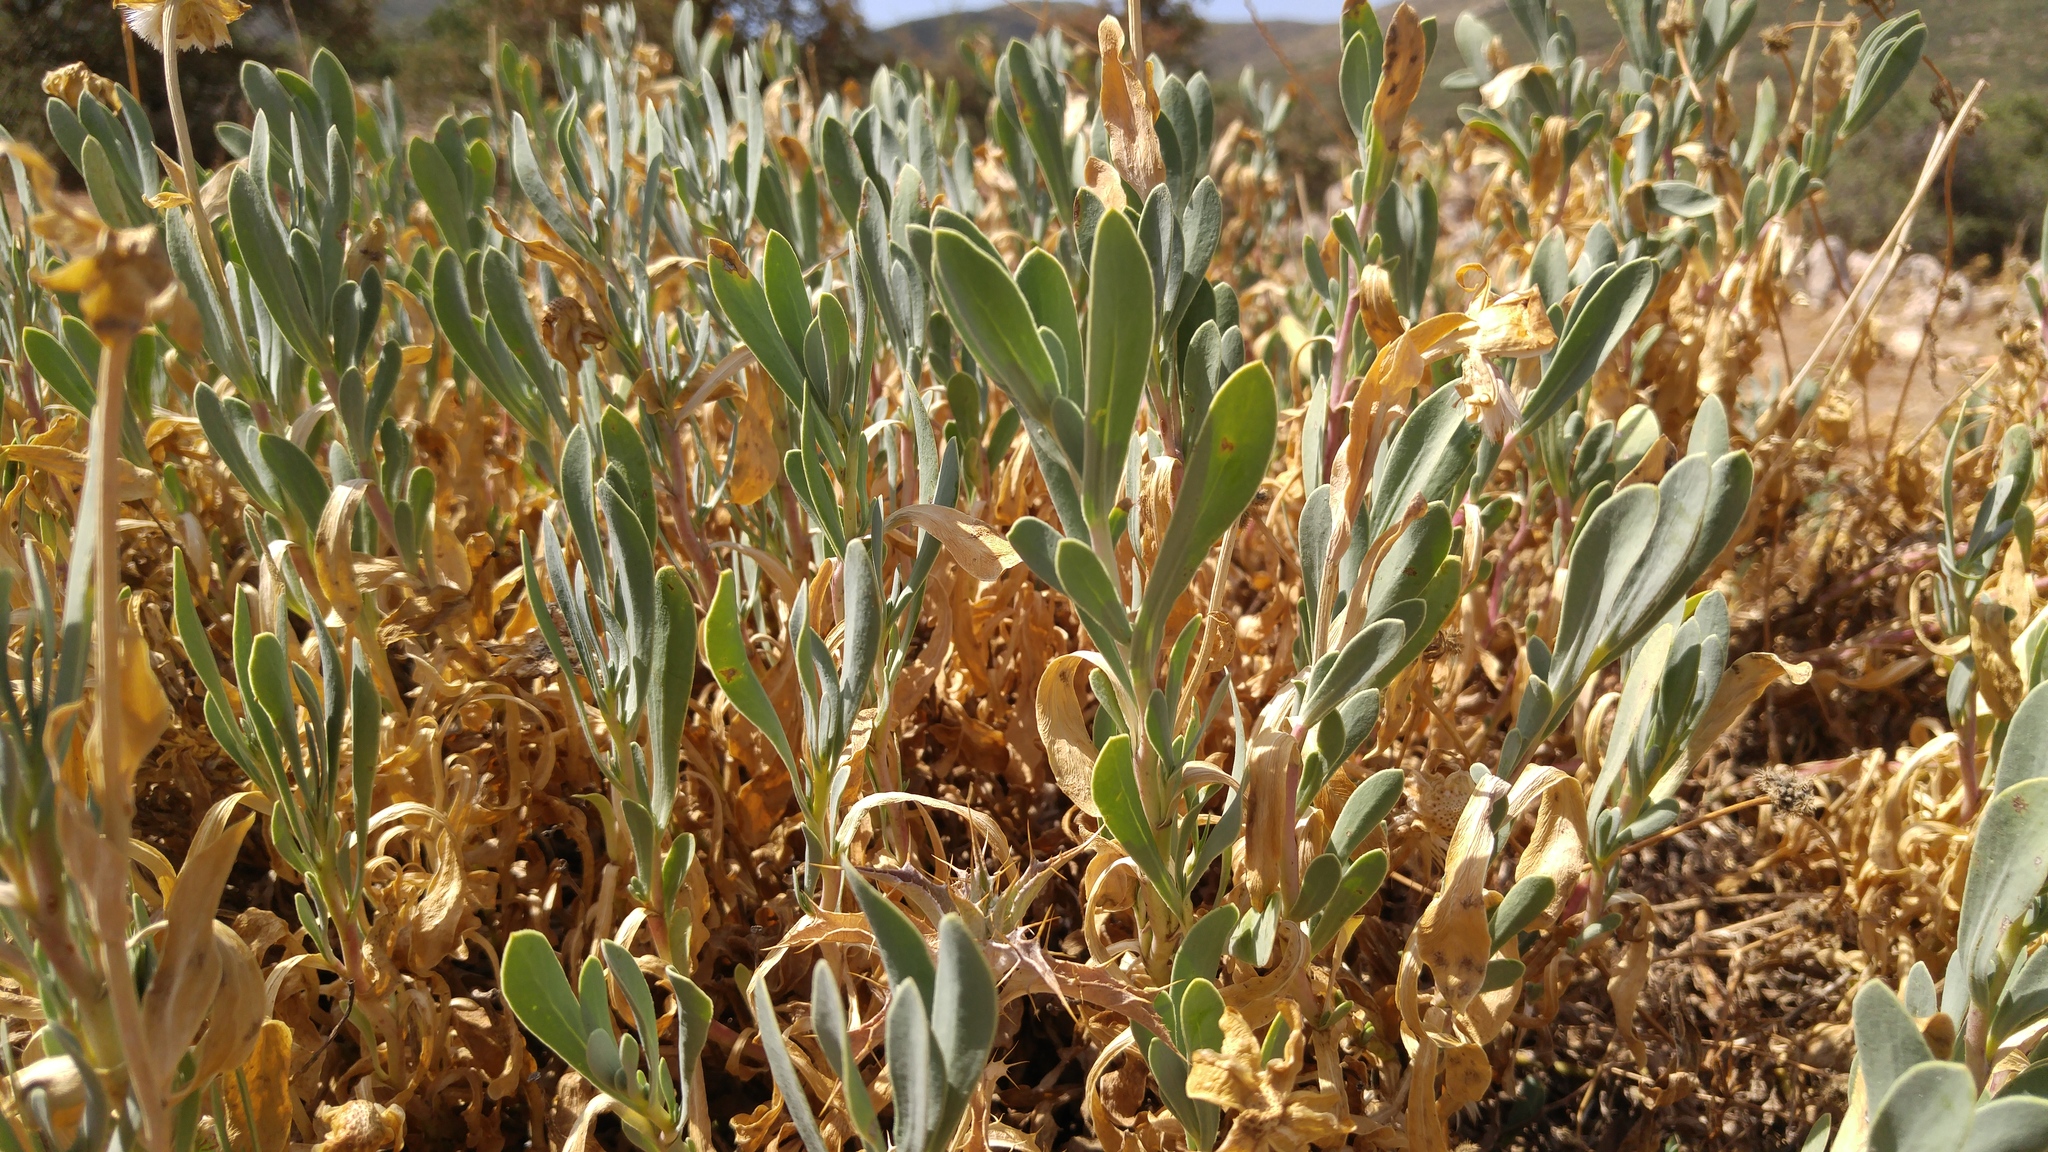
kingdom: Plantae
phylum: Tracheophyta
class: Magnoliopsida
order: Asterales
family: Asteraceae
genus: Hertia
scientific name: Hertia cheirifolia
